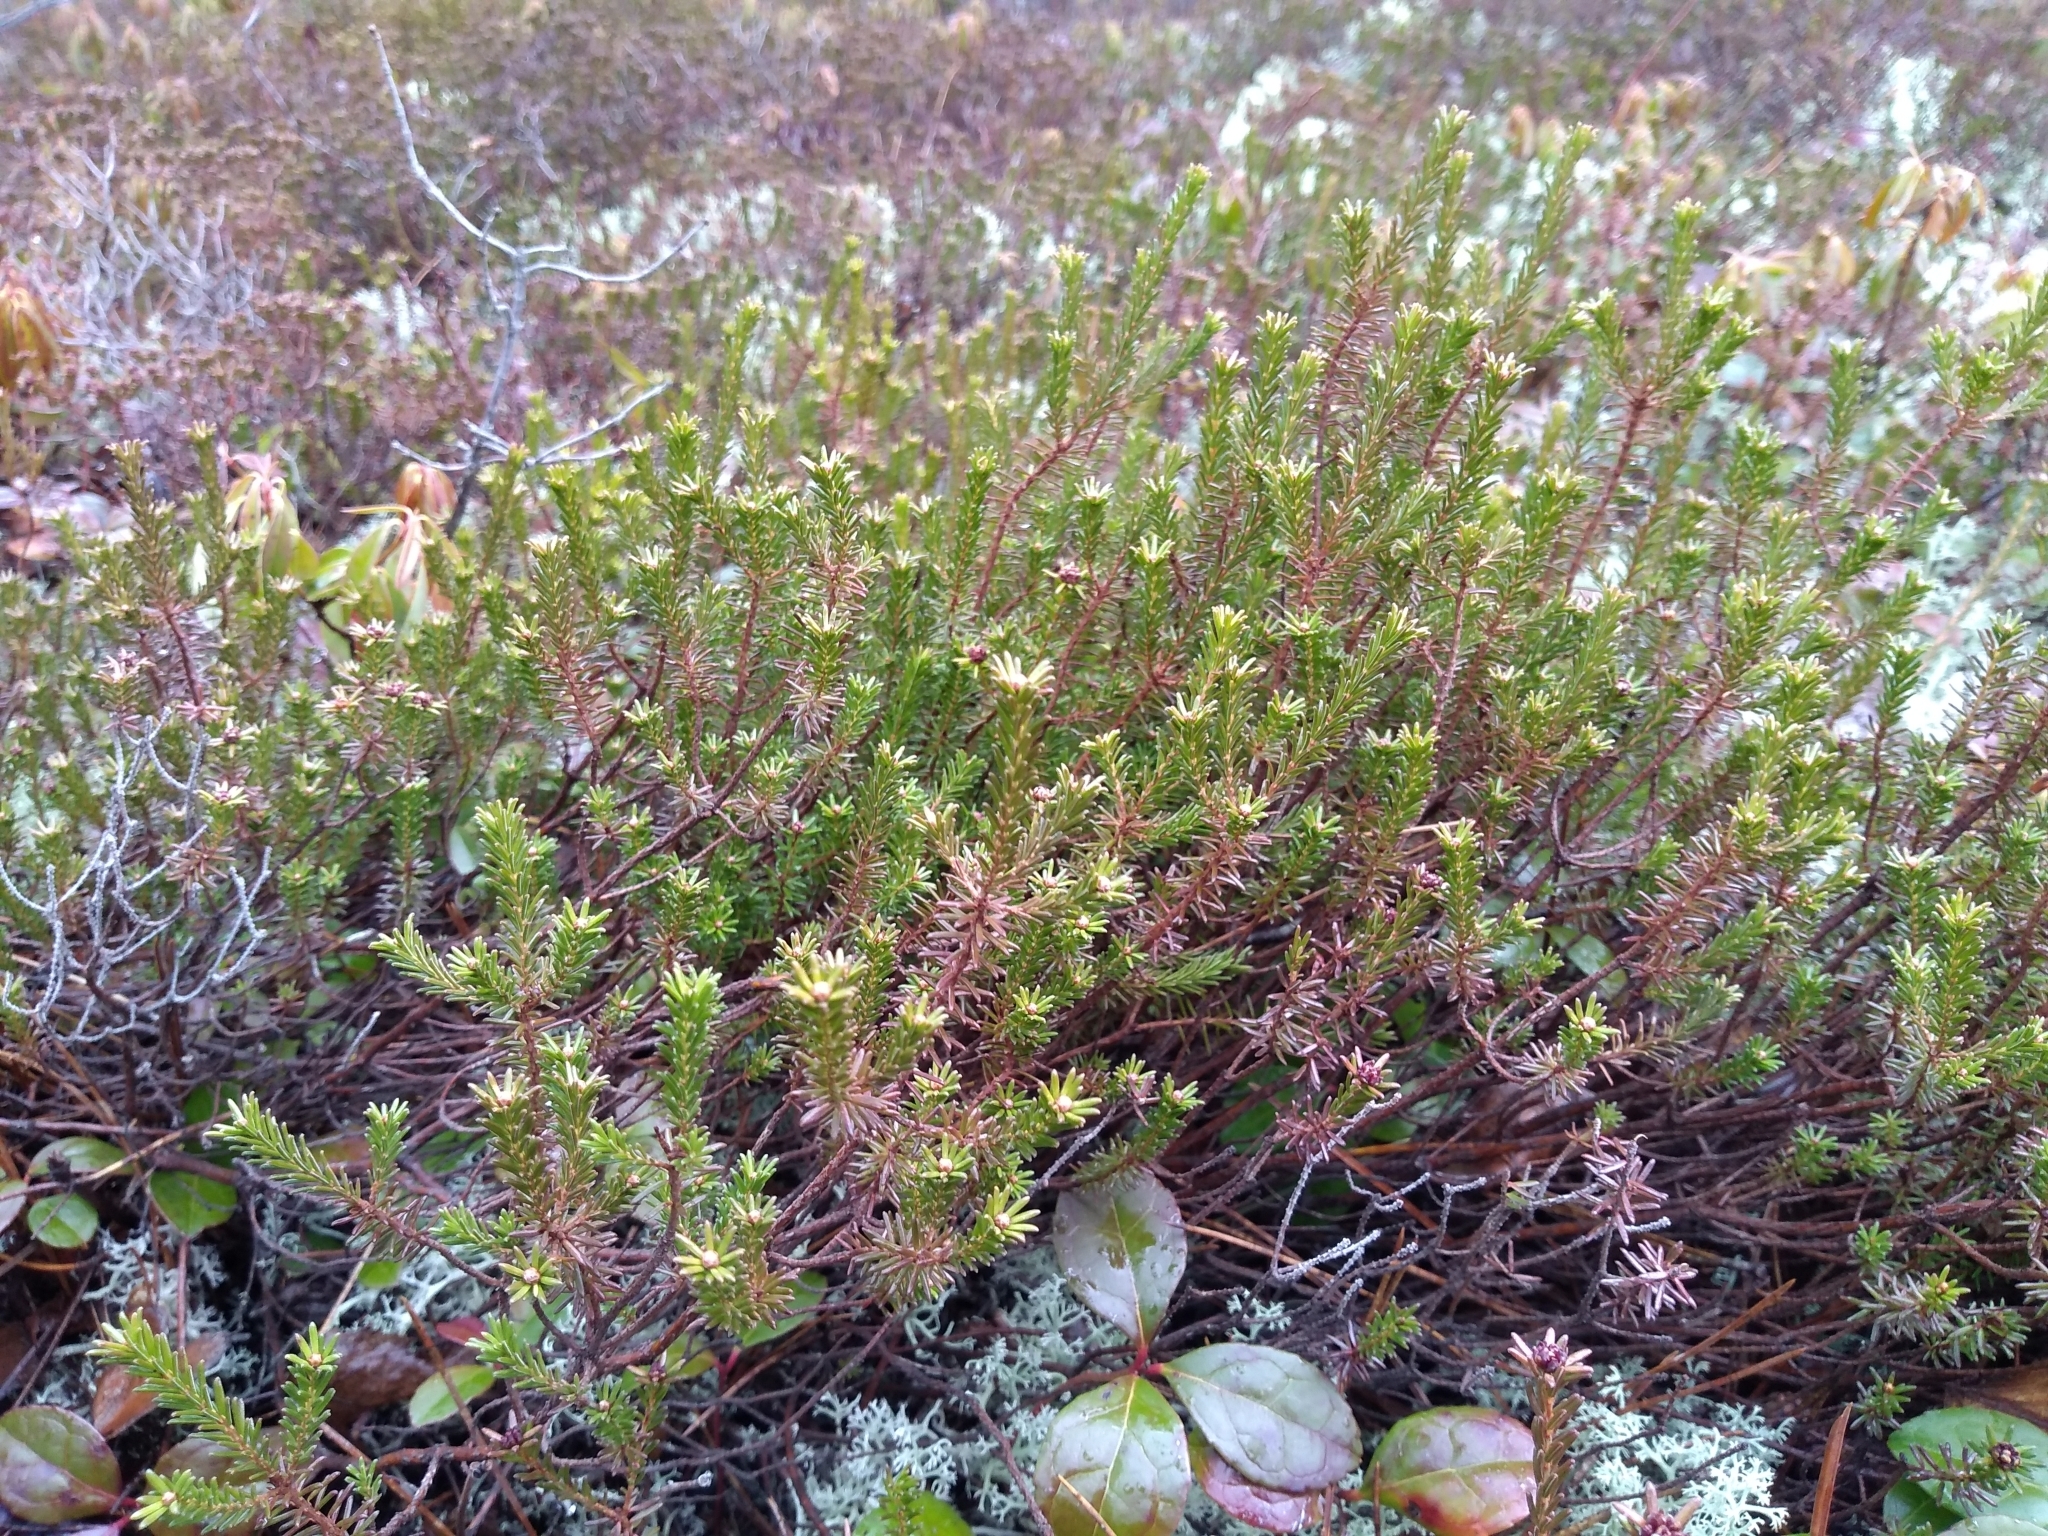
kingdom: Plantae
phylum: Tracheophyta
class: Magnoliopsida
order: Ericales
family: Ericaceae
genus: Corema
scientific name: Corema conradii
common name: Broom-crowberry
